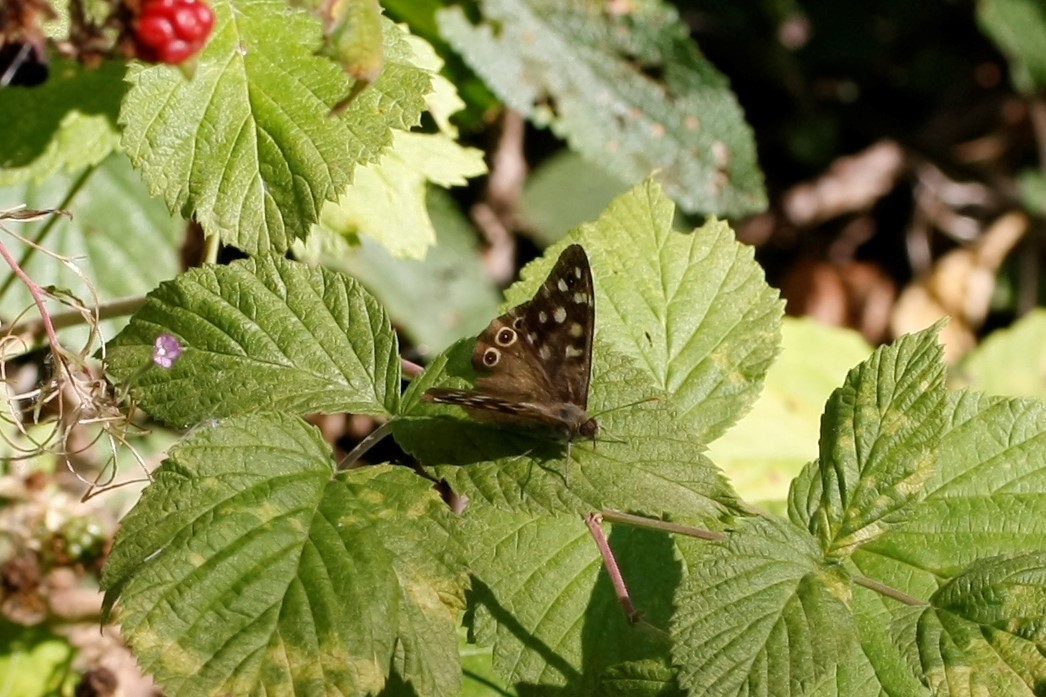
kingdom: Animalia
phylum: Arthropoda
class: Insecta
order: Lepidoptera
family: Nymphalidae
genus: Pararge
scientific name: Pararge aegeria
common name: Speckled wood
